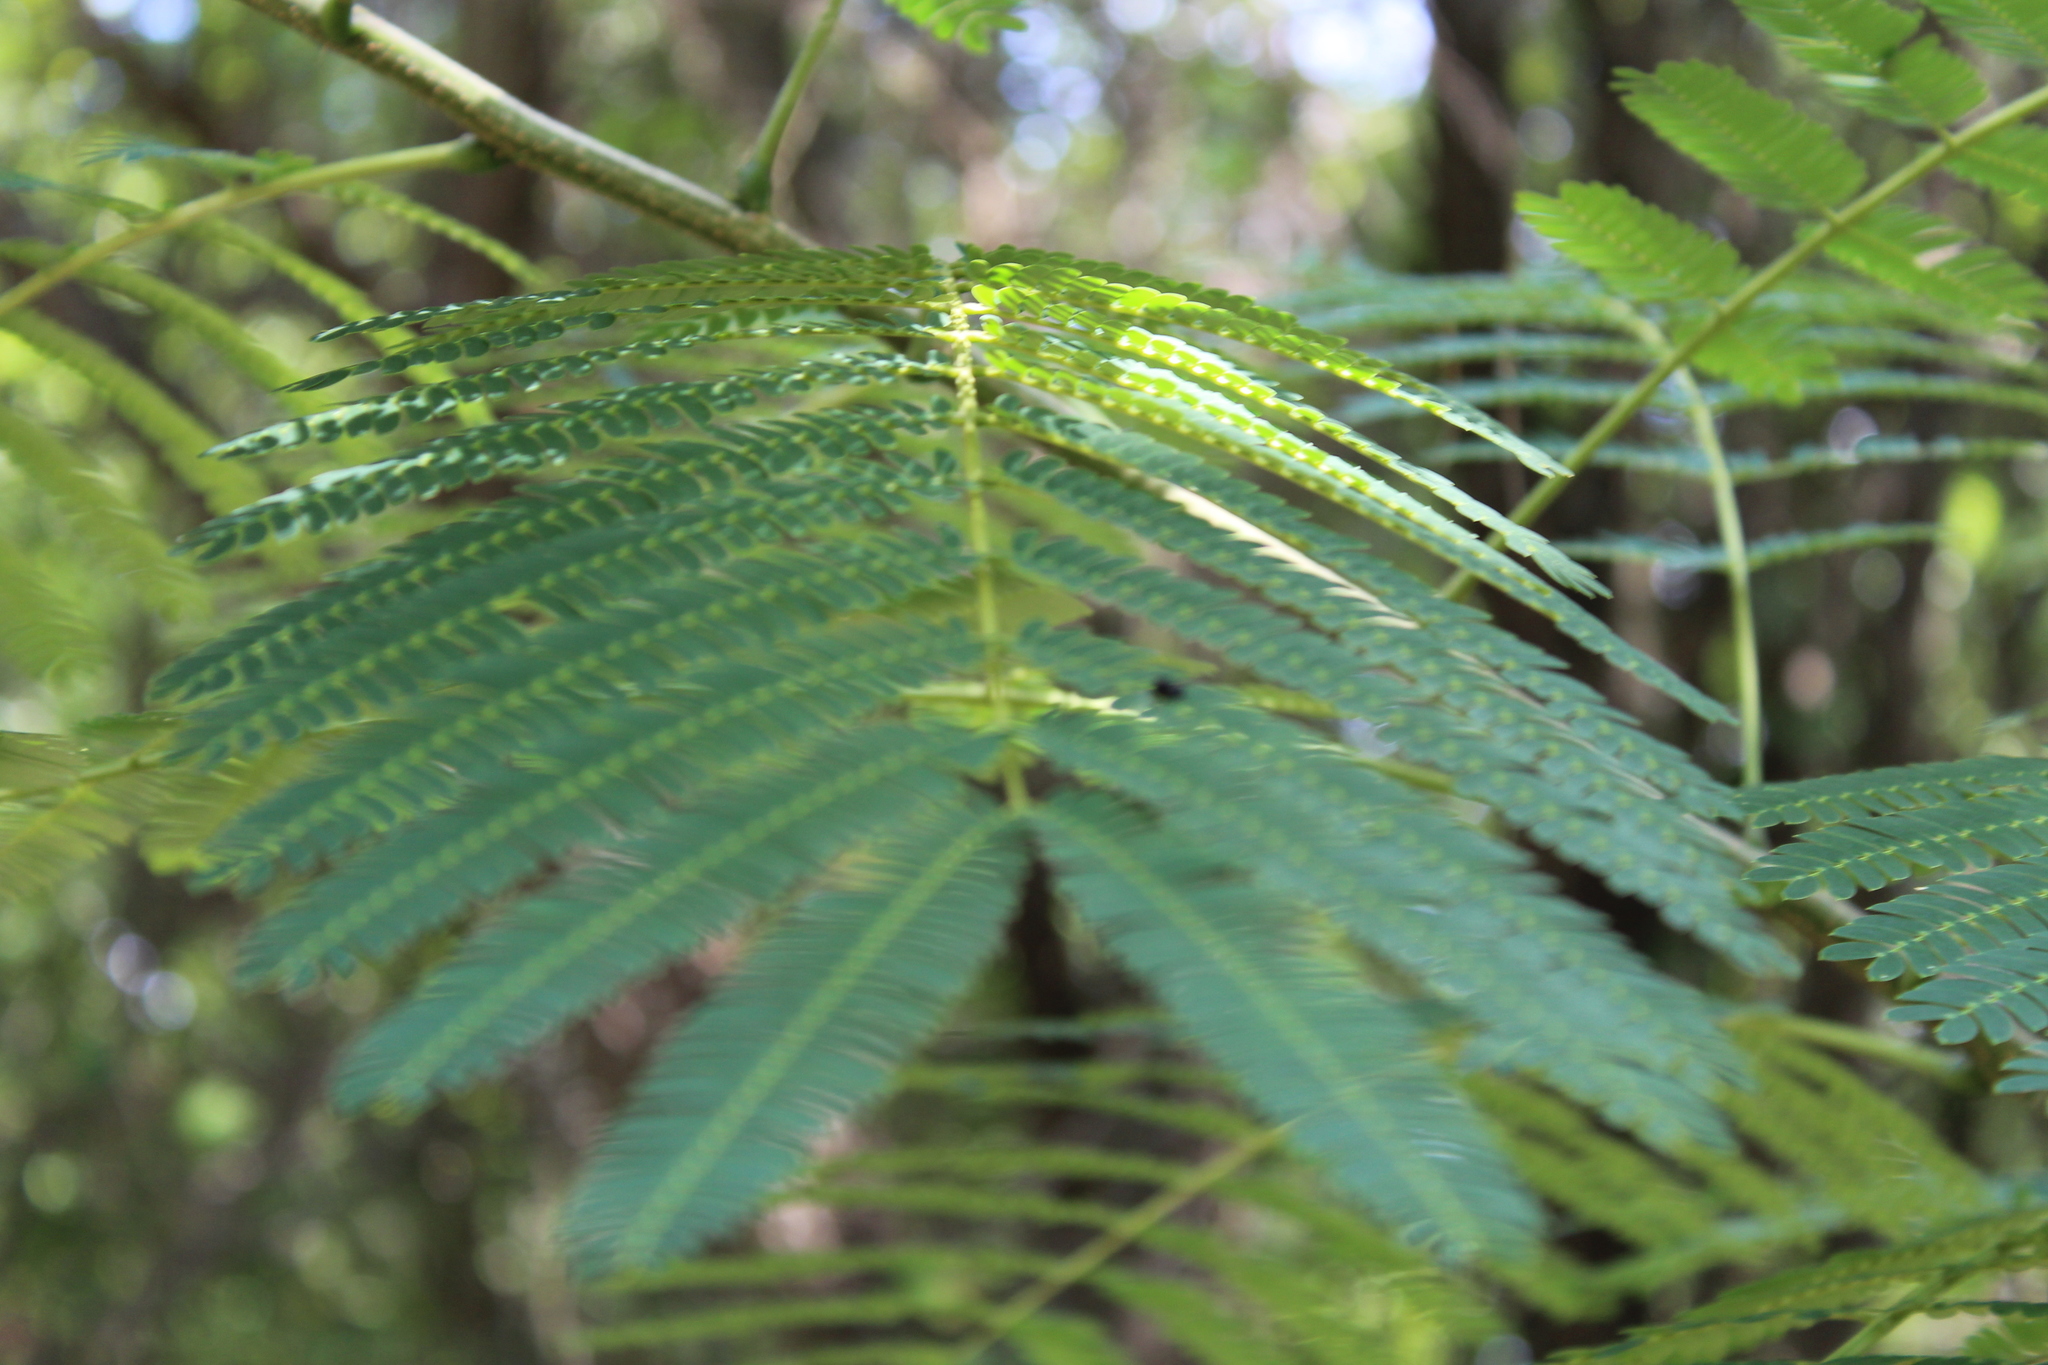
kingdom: Plantae
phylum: Tracheophyta
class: Magnoliopsida
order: Fabales
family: Fabaceae
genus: Albizia
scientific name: Albizia julibrissin
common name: Silktree
